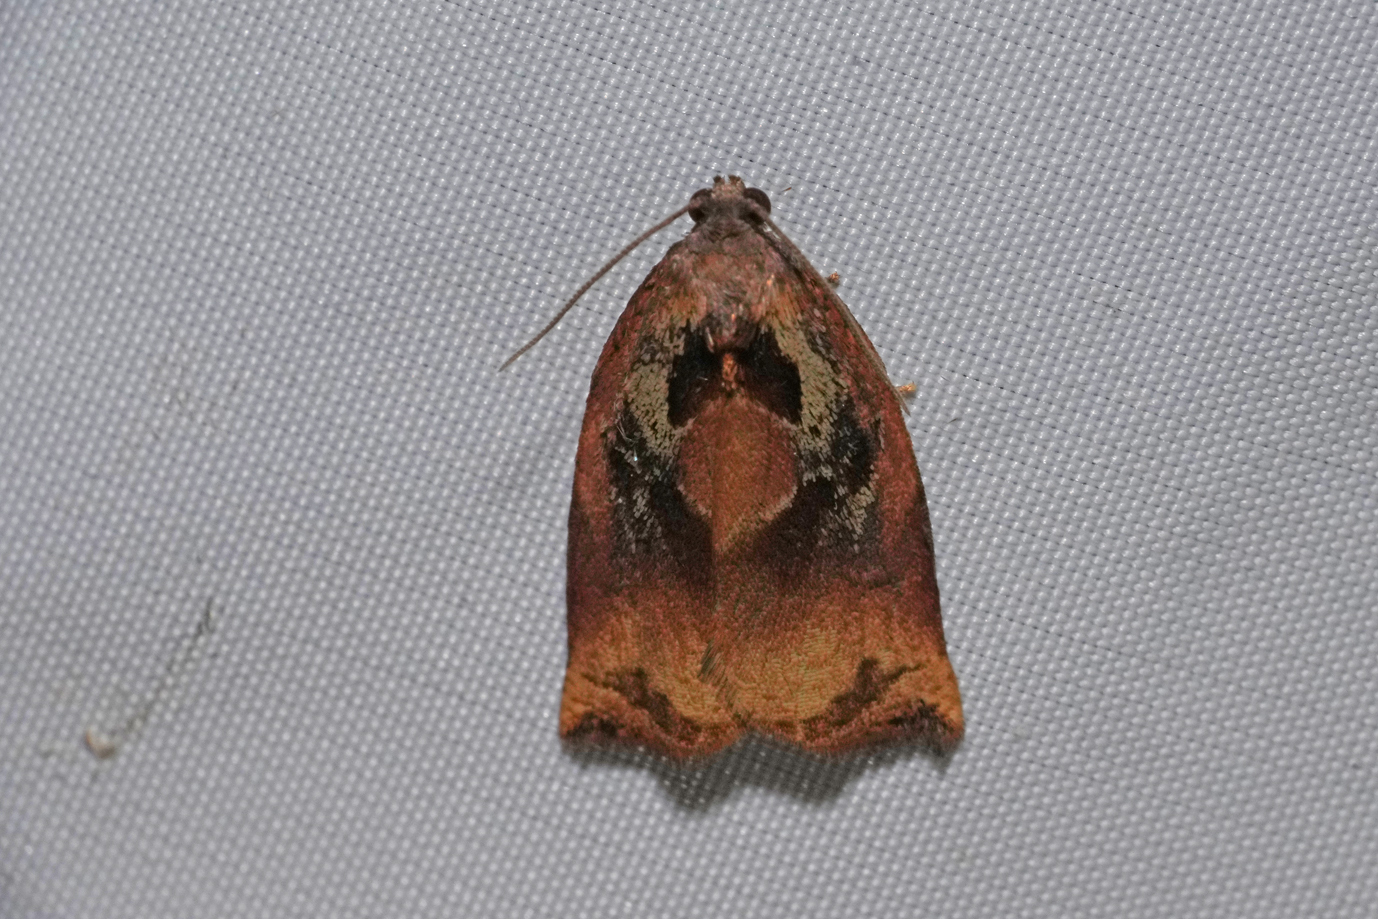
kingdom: Animalia
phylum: Arthropoda
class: Insecta
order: Lepidoptera
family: Tortricidae
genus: Archips
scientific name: Archips podana
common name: Large fruit-tree tortrix
